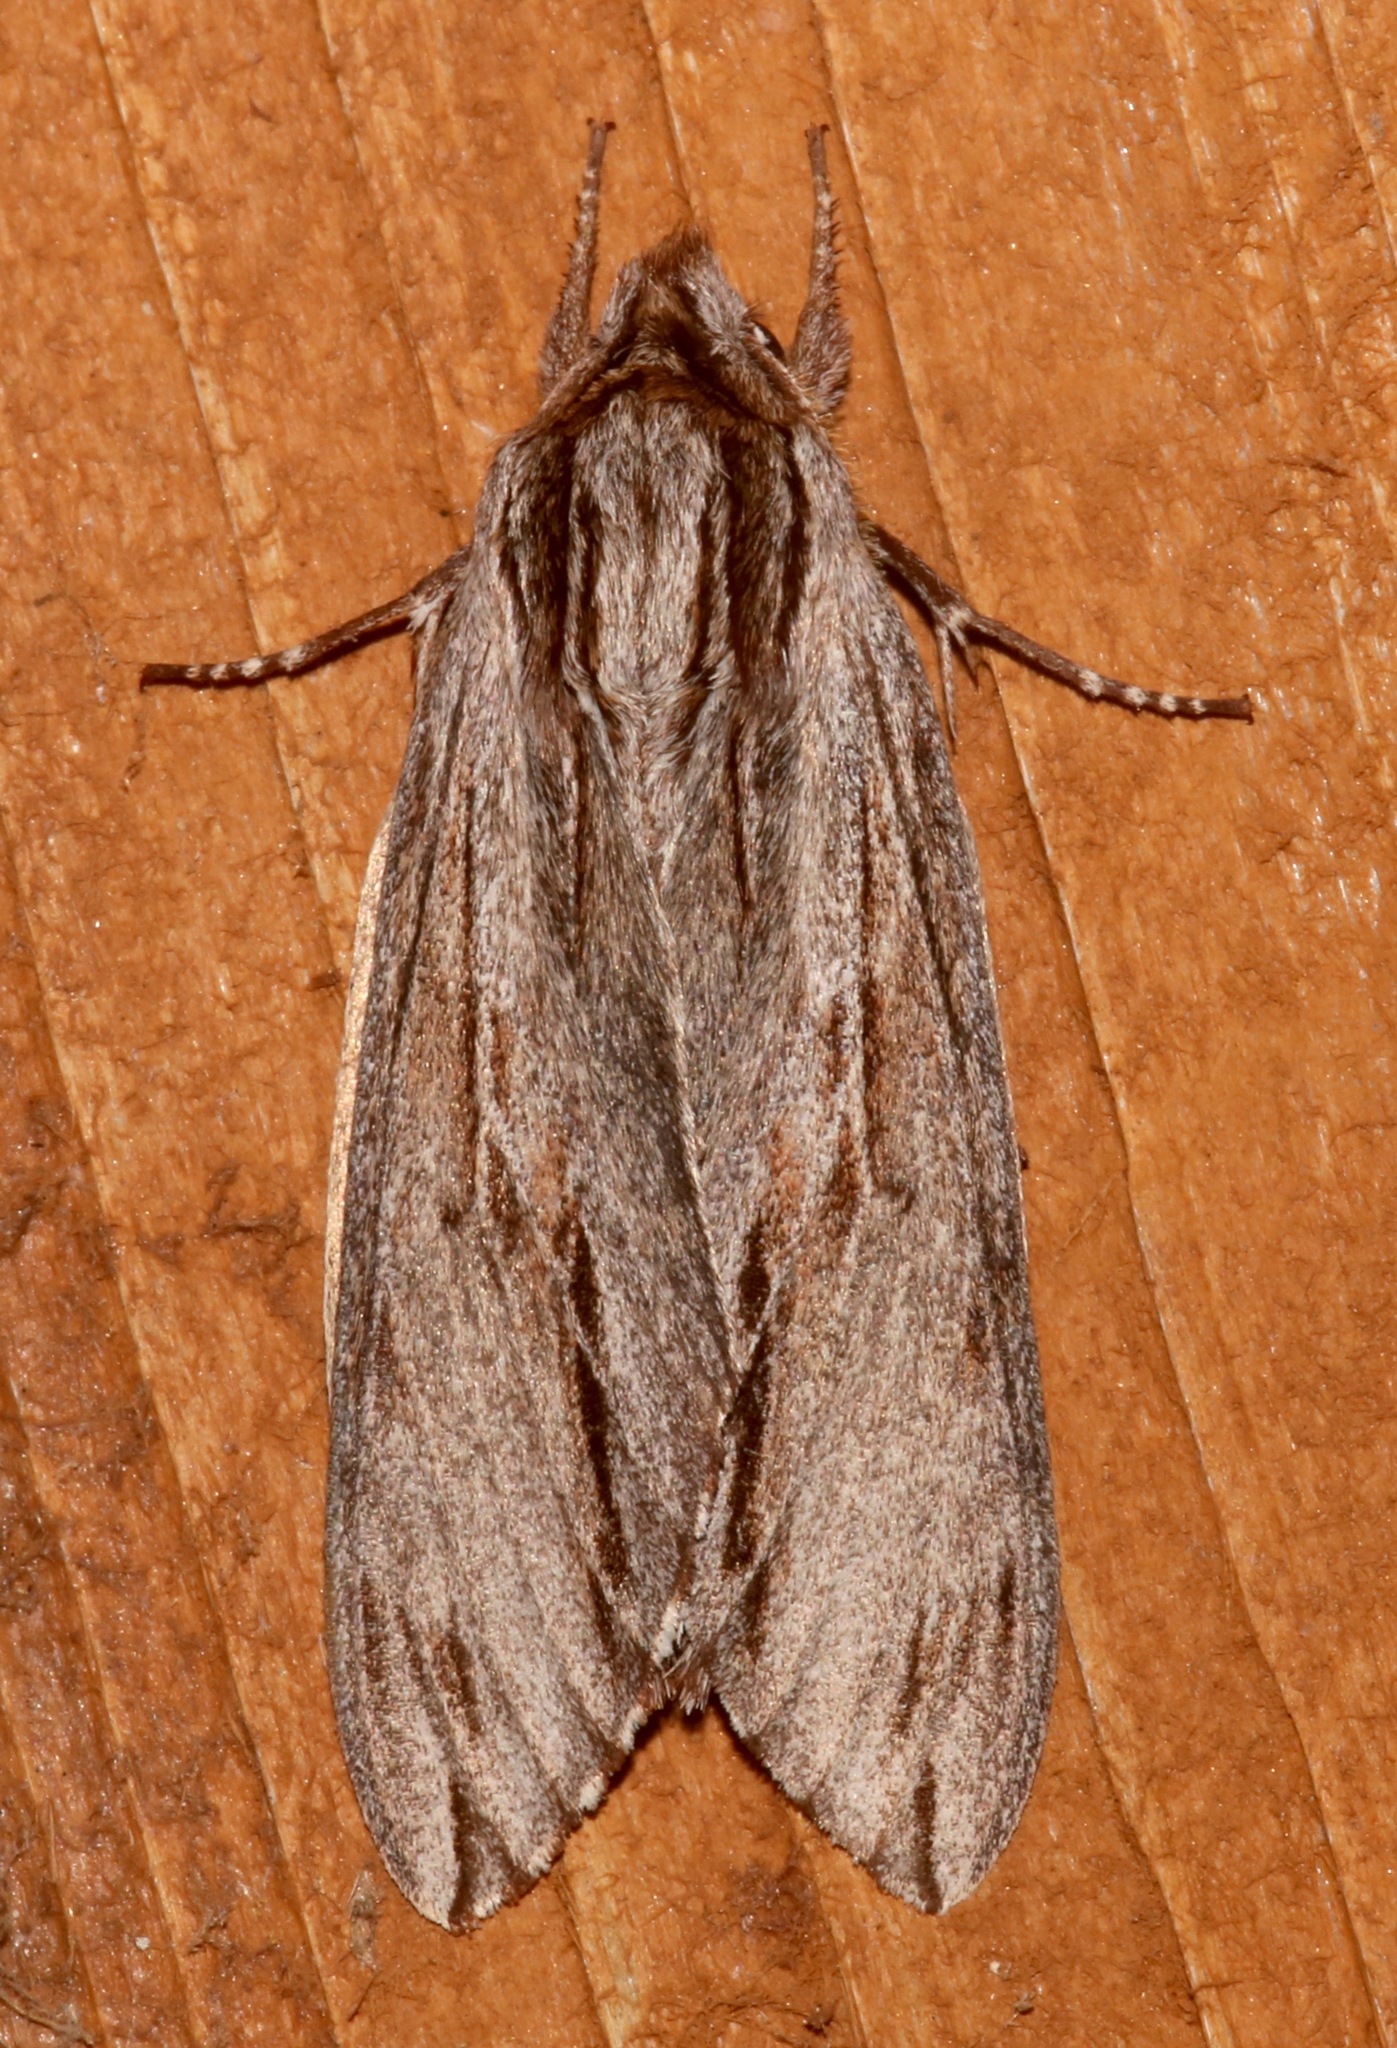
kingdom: Animalia
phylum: Arthropoda
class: Insecta
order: Lepidoptera
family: Sphingidae
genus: Isoparce
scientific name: Isoparce cupressi
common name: Cypress sphinx
